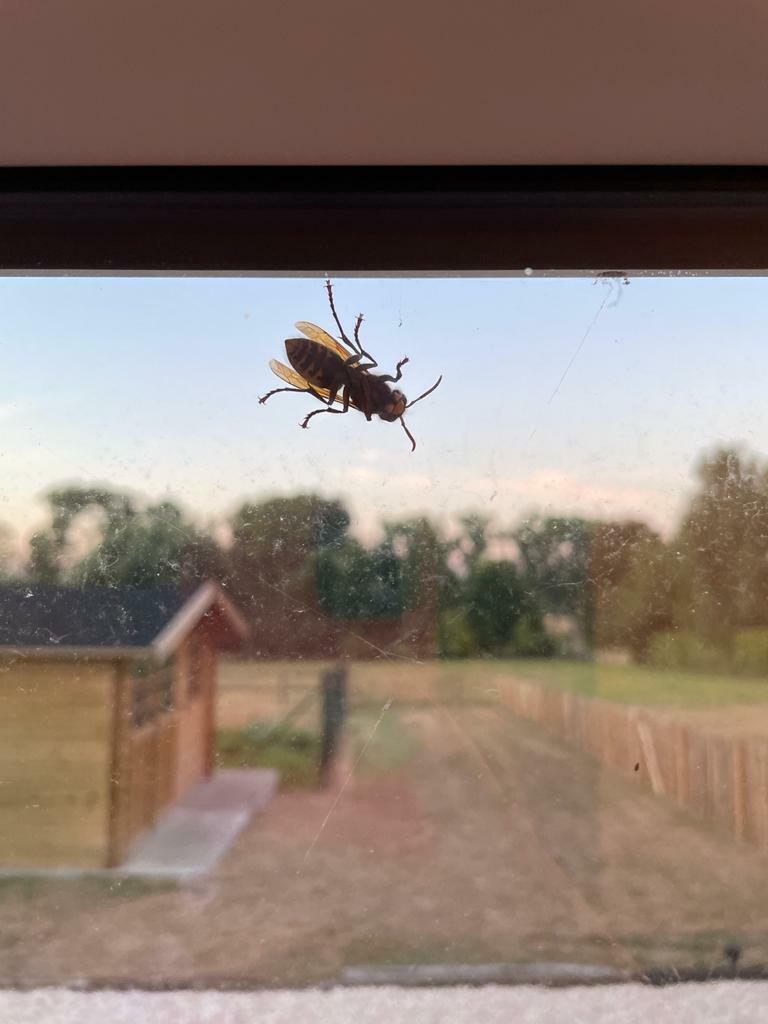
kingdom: Animalia
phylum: Arthropoda
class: Insecta
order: Hymenoptera
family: Vespidae
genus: Vespa
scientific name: Vespa crabro
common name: Hornet
